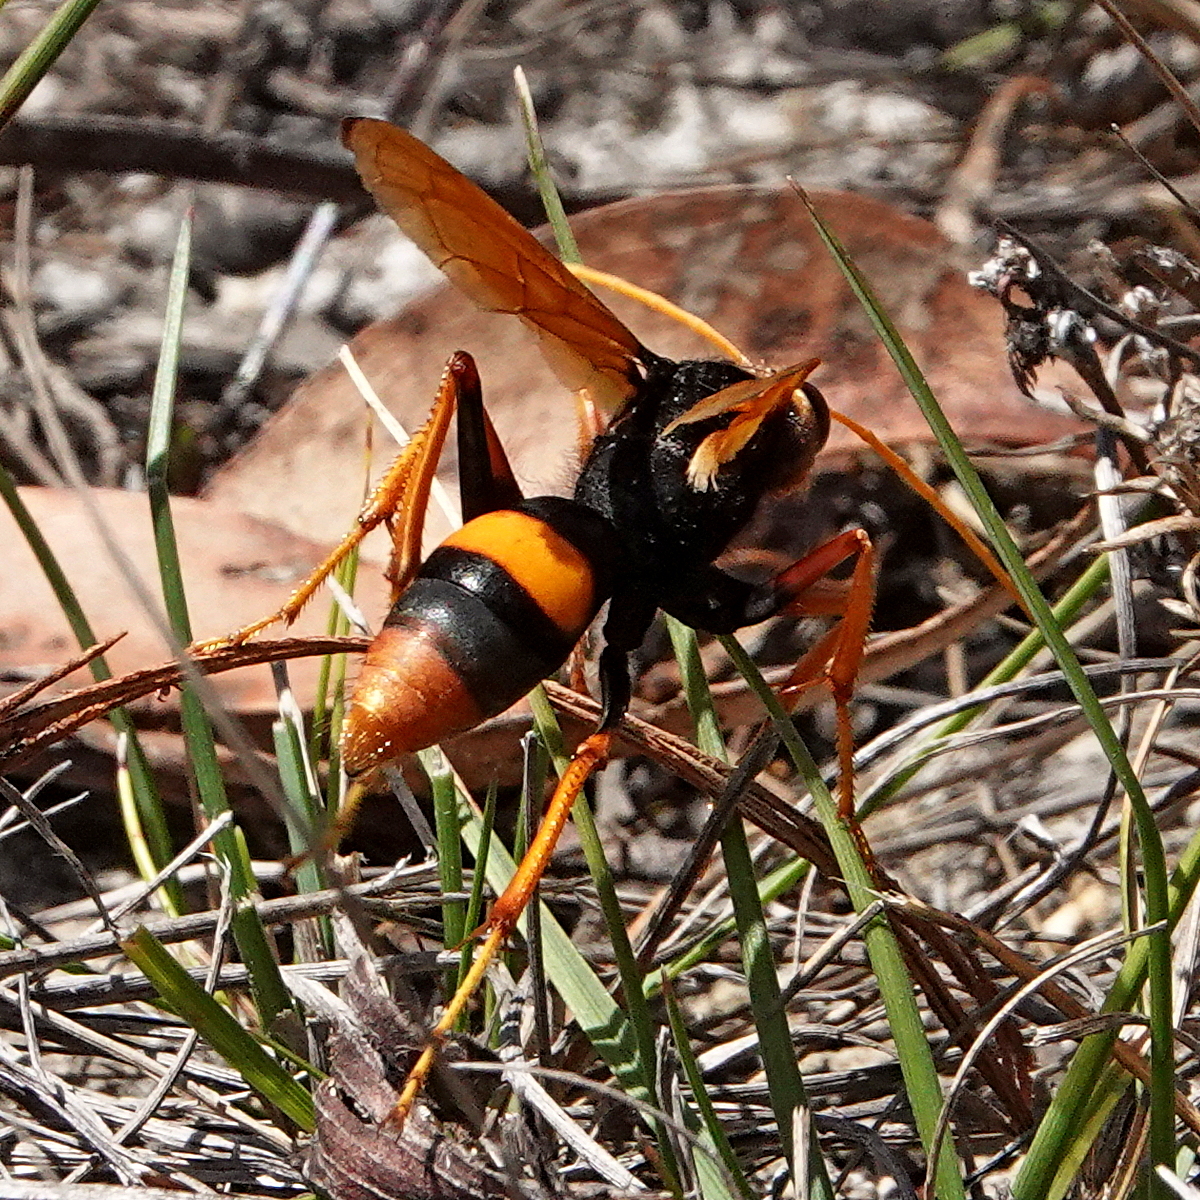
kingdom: Animalia
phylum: Arthropoda
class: Insecta
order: Hymenoptera
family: Pompilidae
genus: Cryptocheilus
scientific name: Cryptocheilus octomaculatus
